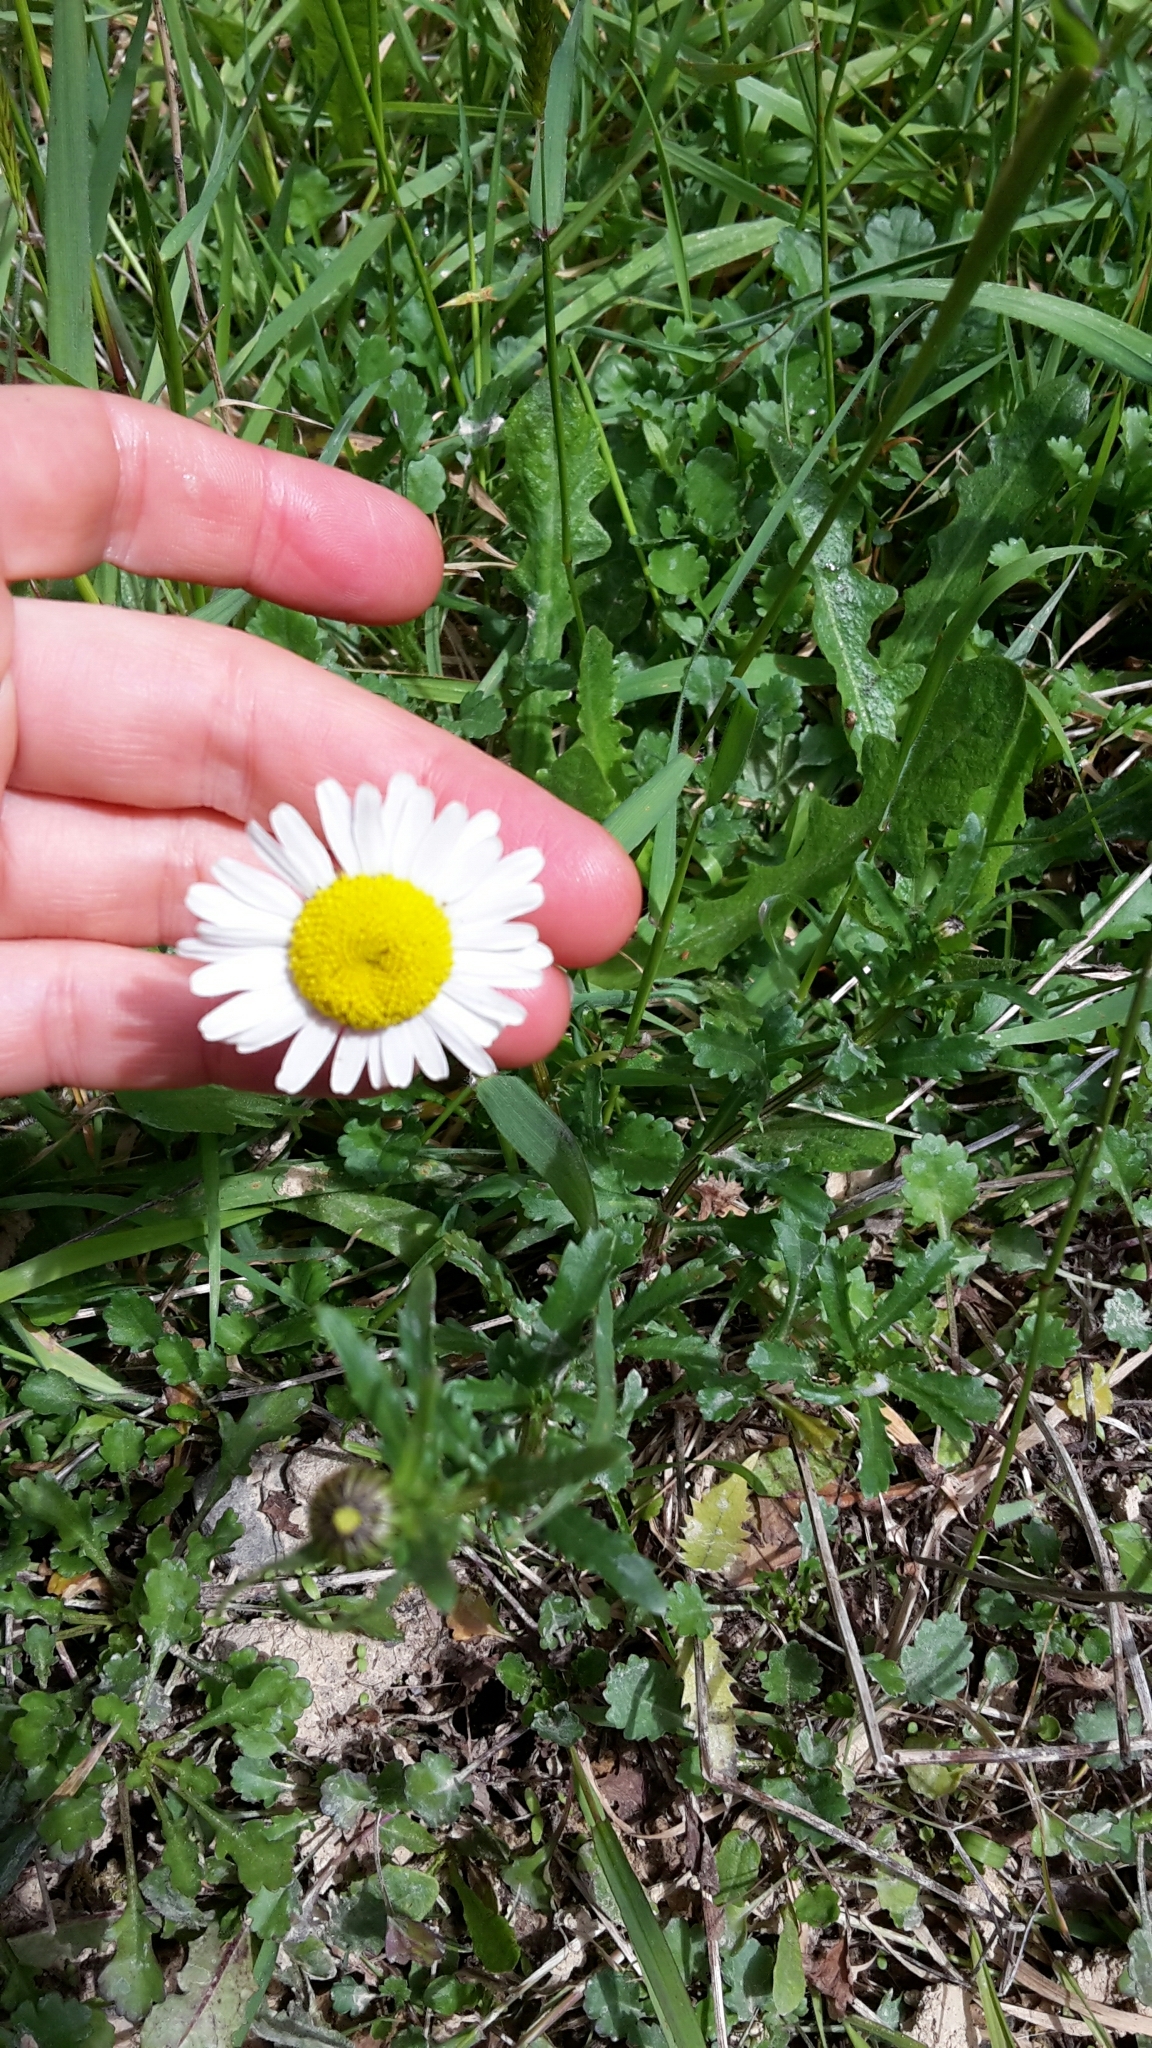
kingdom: Plantae
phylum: Tracheophyta
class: Magnoliopsida
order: Asterales
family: Asteraceae
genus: Leucanthemum
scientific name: Leucanthemum vulgare
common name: Oxeye daisy
